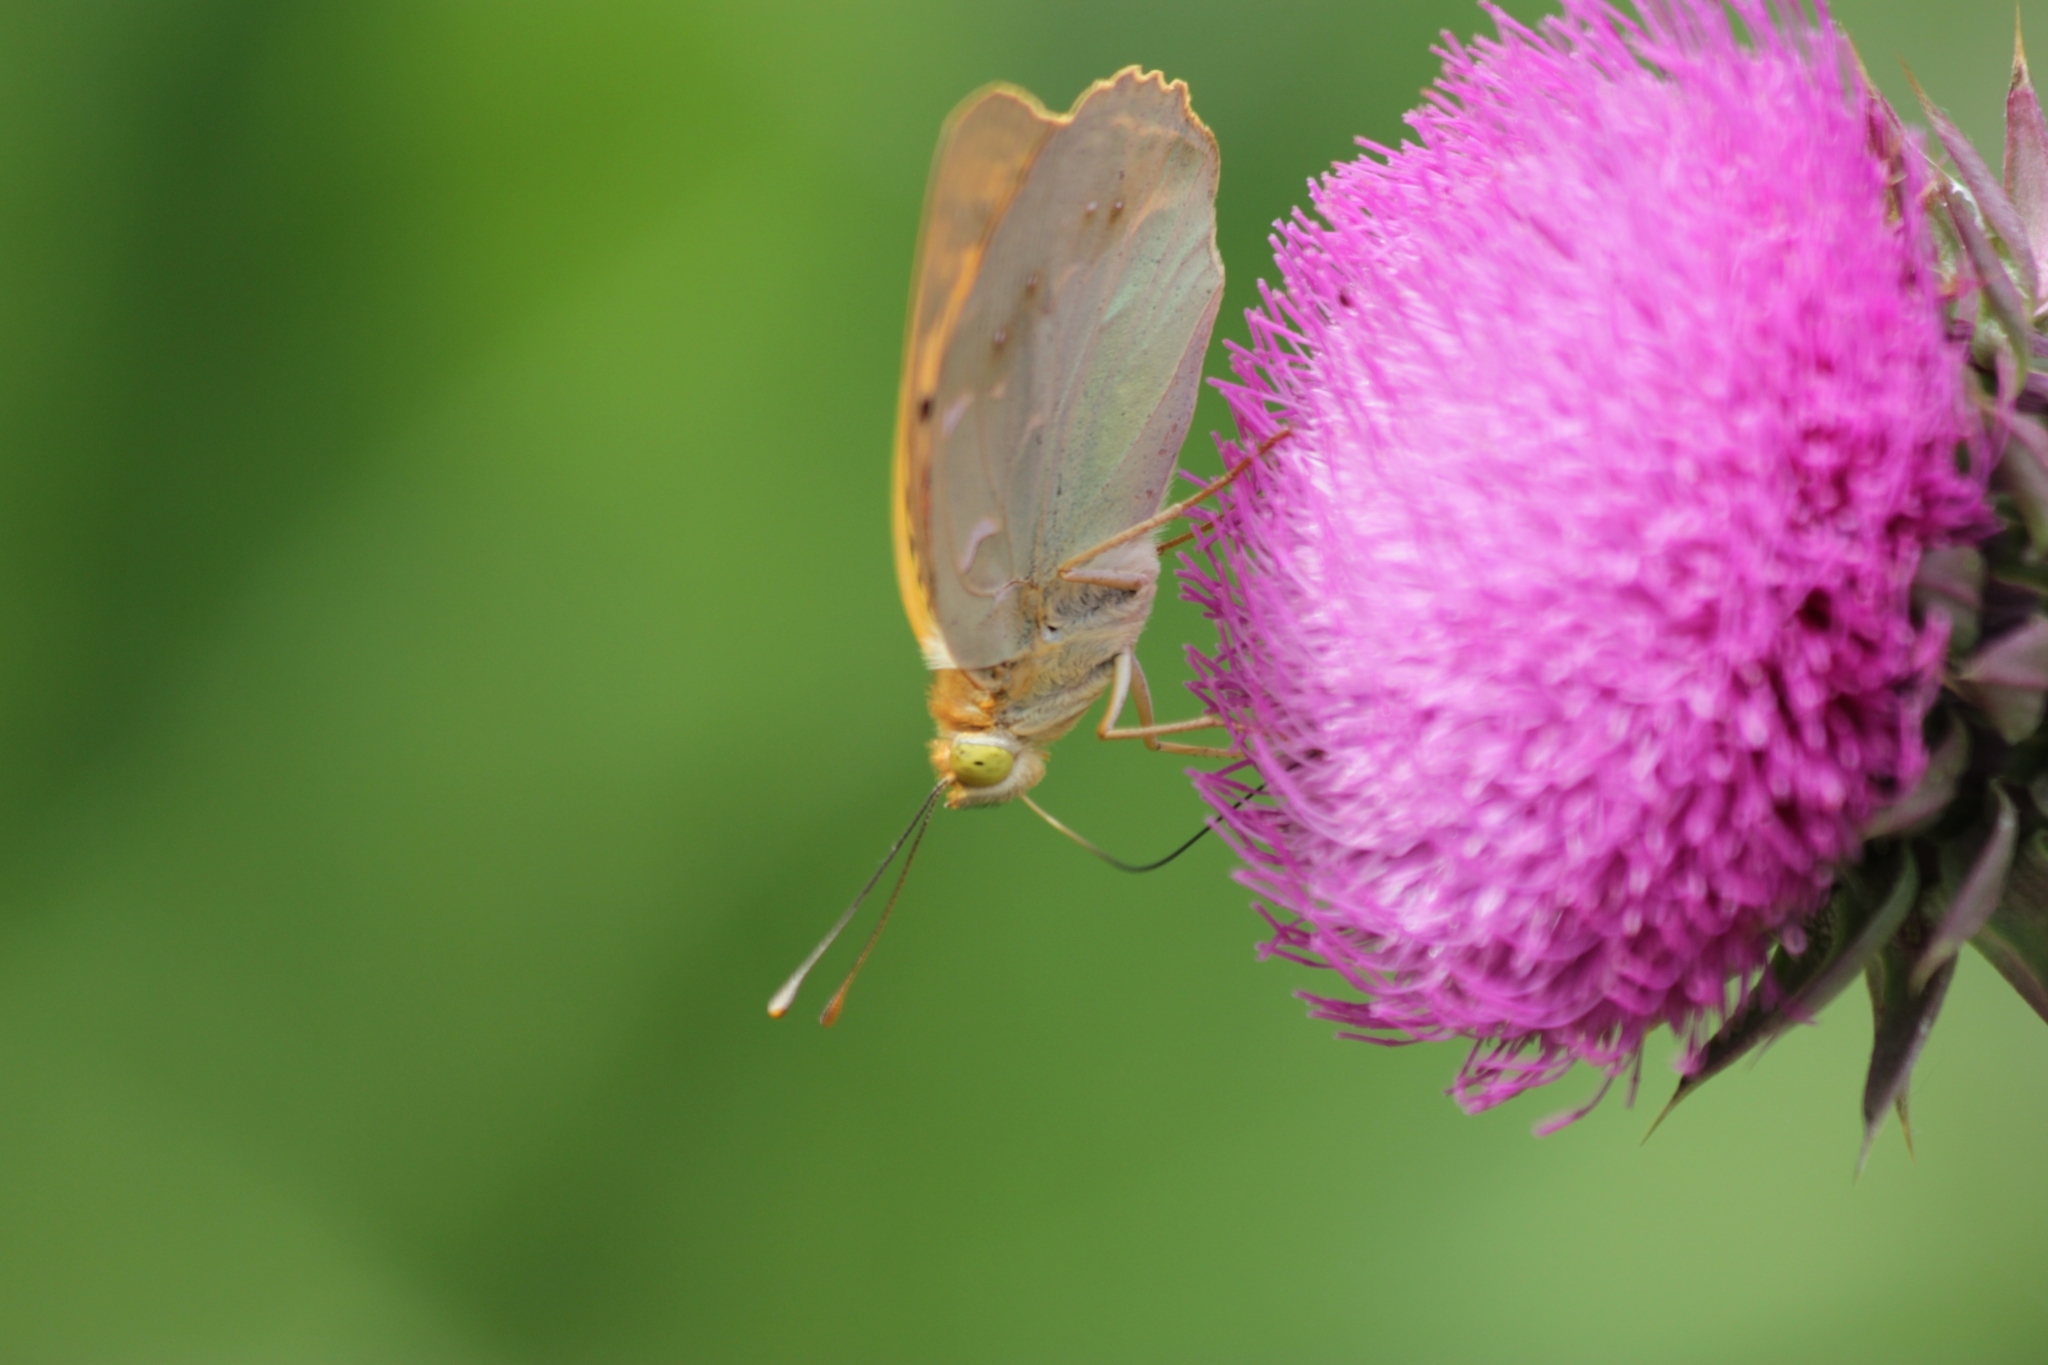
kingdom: Animalia
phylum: Arthropoda
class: Insecta
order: Lepidoptera
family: Nymphalidae
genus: Damora
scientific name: Damora pandora
